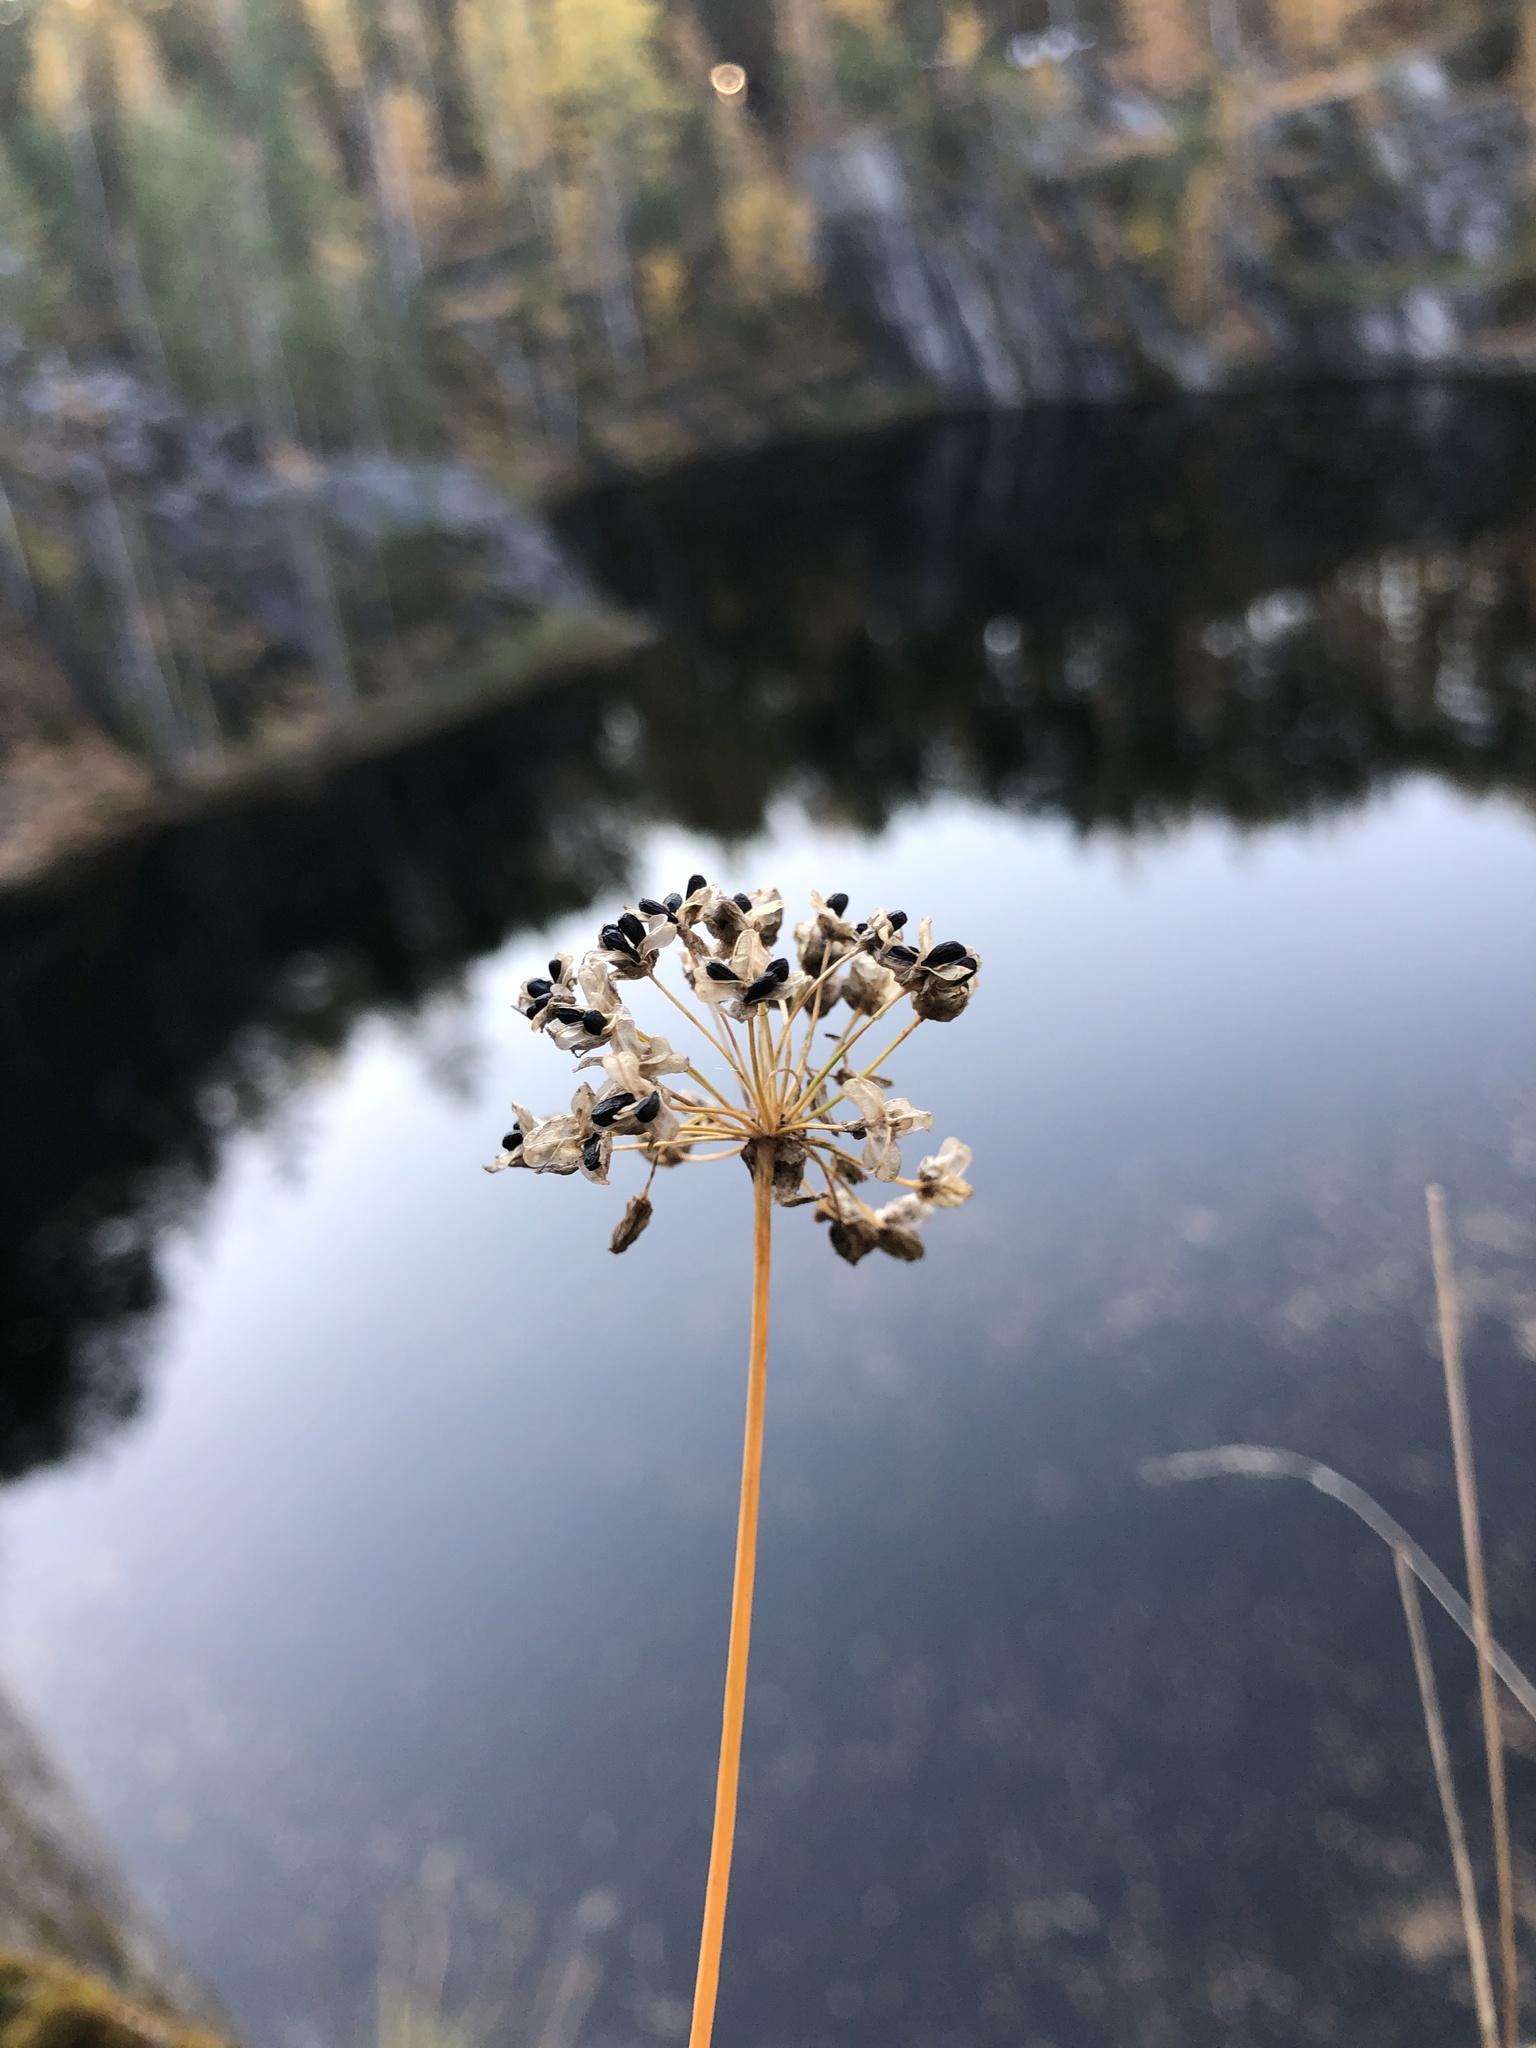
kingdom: Plantae
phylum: Tracheophyta
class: Liliopsida
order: Asparagales
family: Amaryllidaceae
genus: Allium
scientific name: Allium rubens
